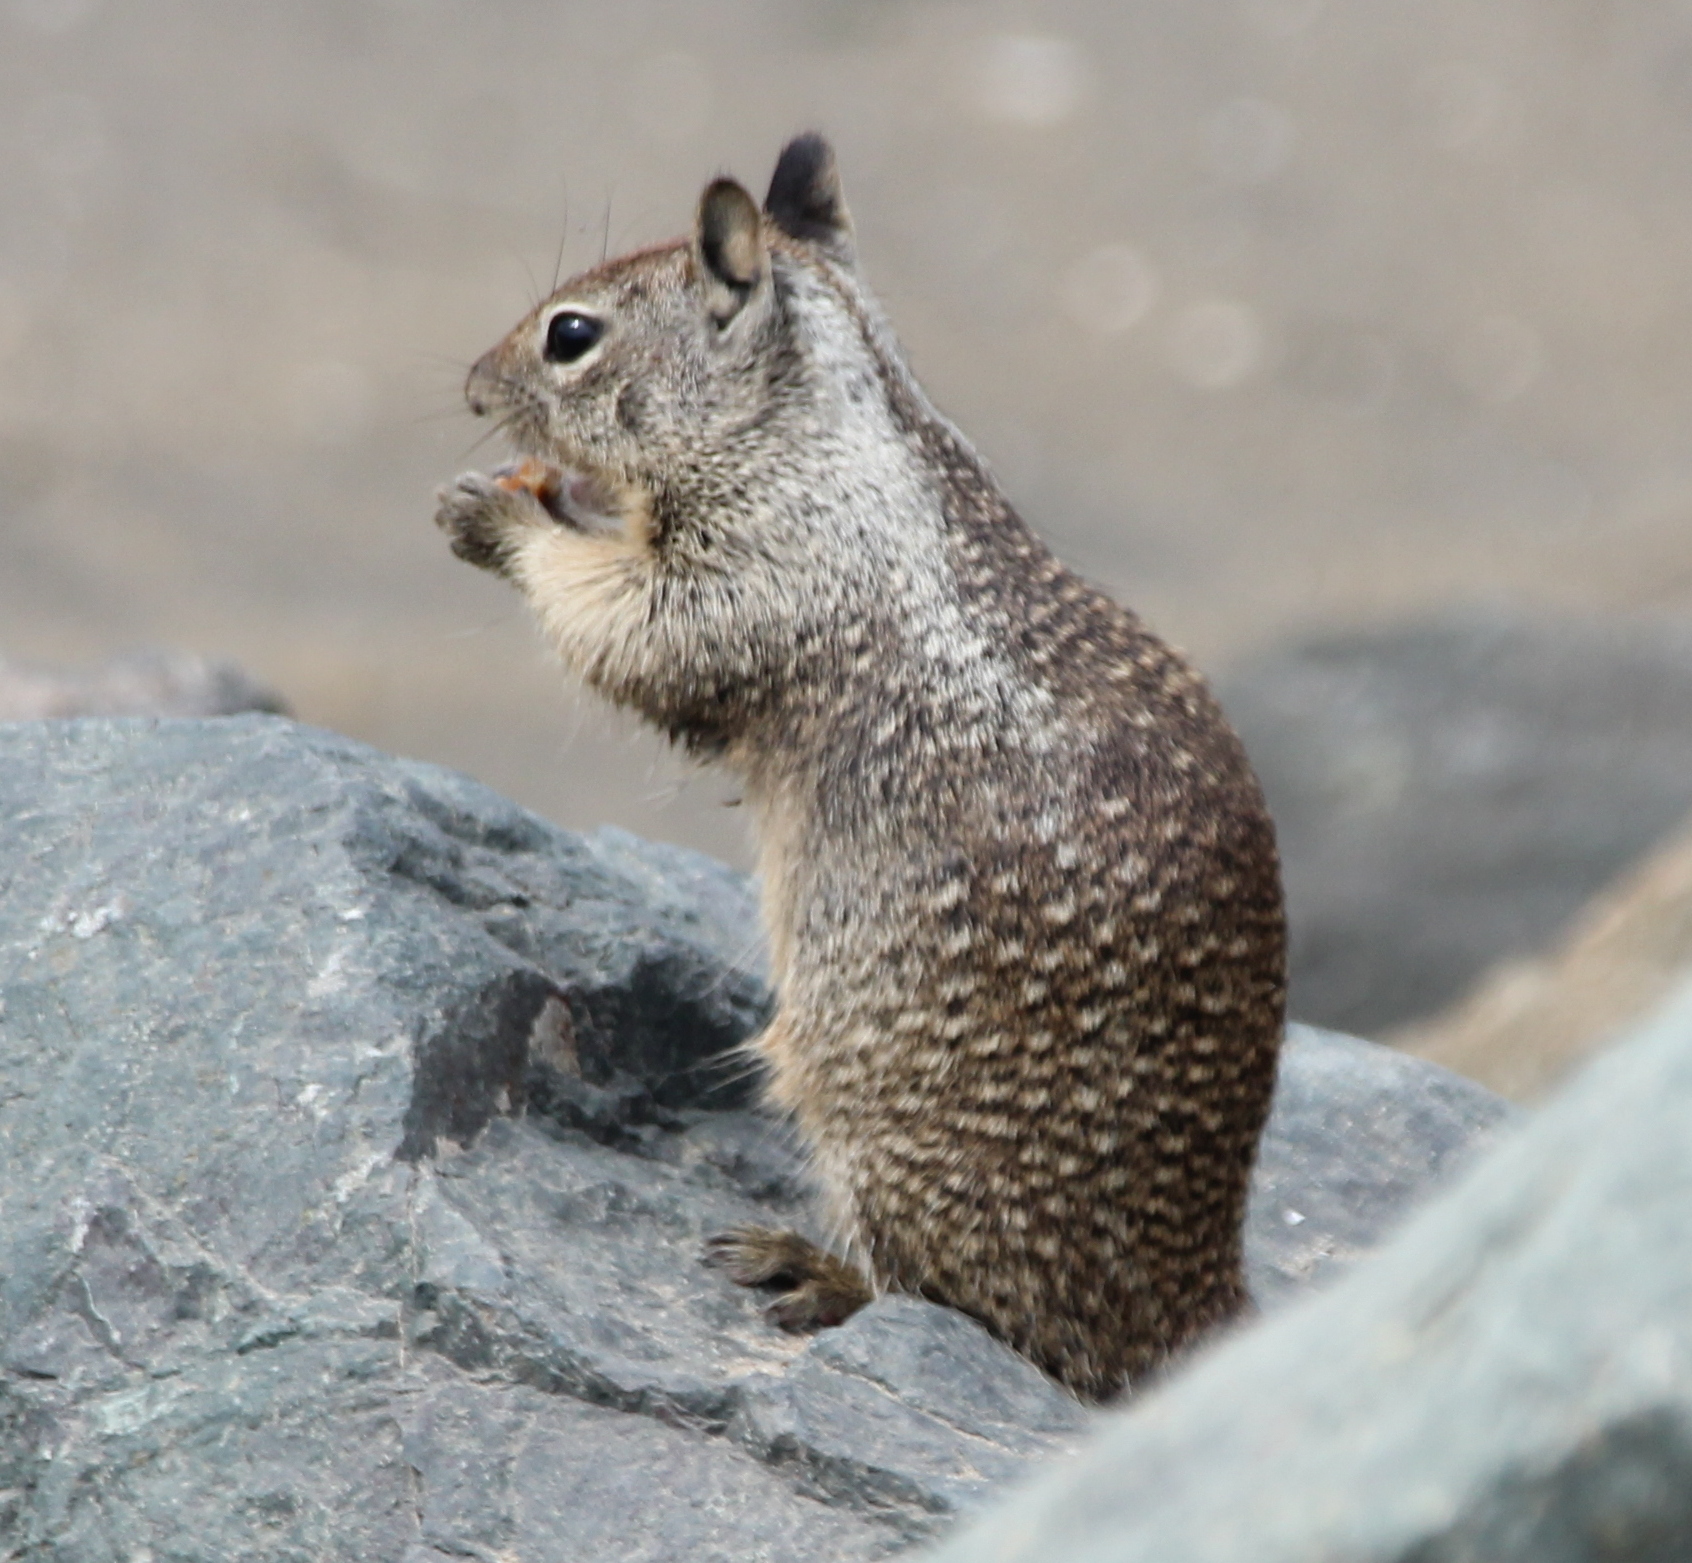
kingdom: Animalia
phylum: Chordata
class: Mammalia
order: Rodentia
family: Sciuridae
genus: Otospermophilus
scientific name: Otospermophilus beecheyi
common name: California ground squirrel
